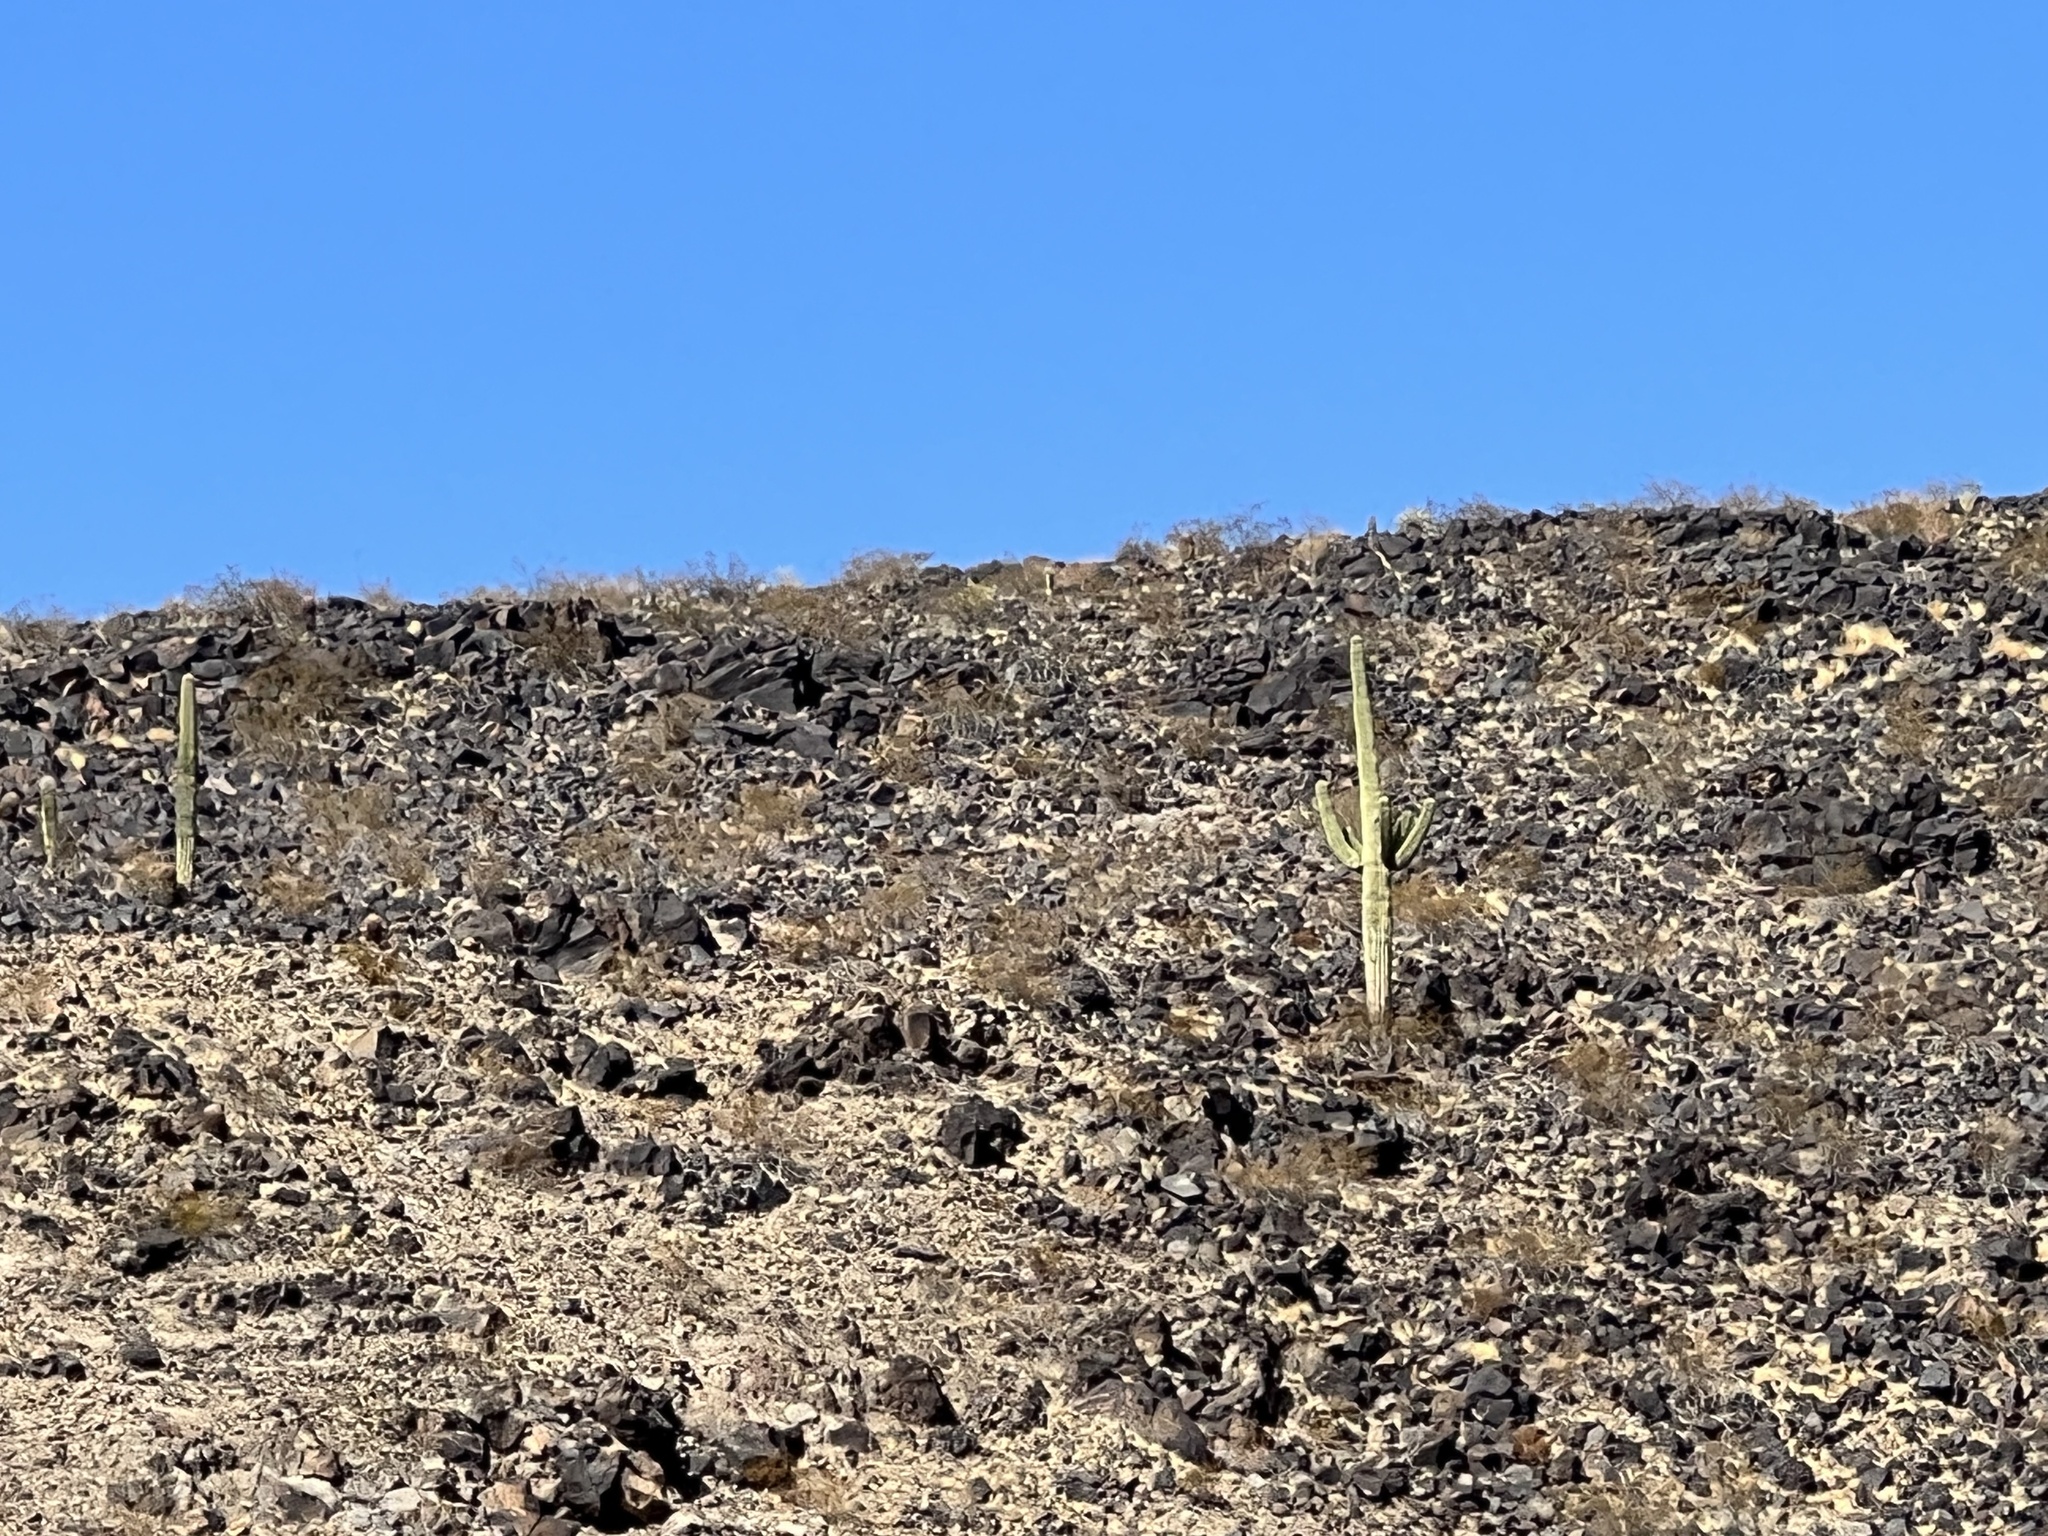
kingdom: Plantae
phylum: Tracheophyta
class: Magnoliopsida
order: Caryophyllales
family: Cactaceae
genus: Carnegiea
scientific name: Carnegiea gigantea
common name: Saguaro
